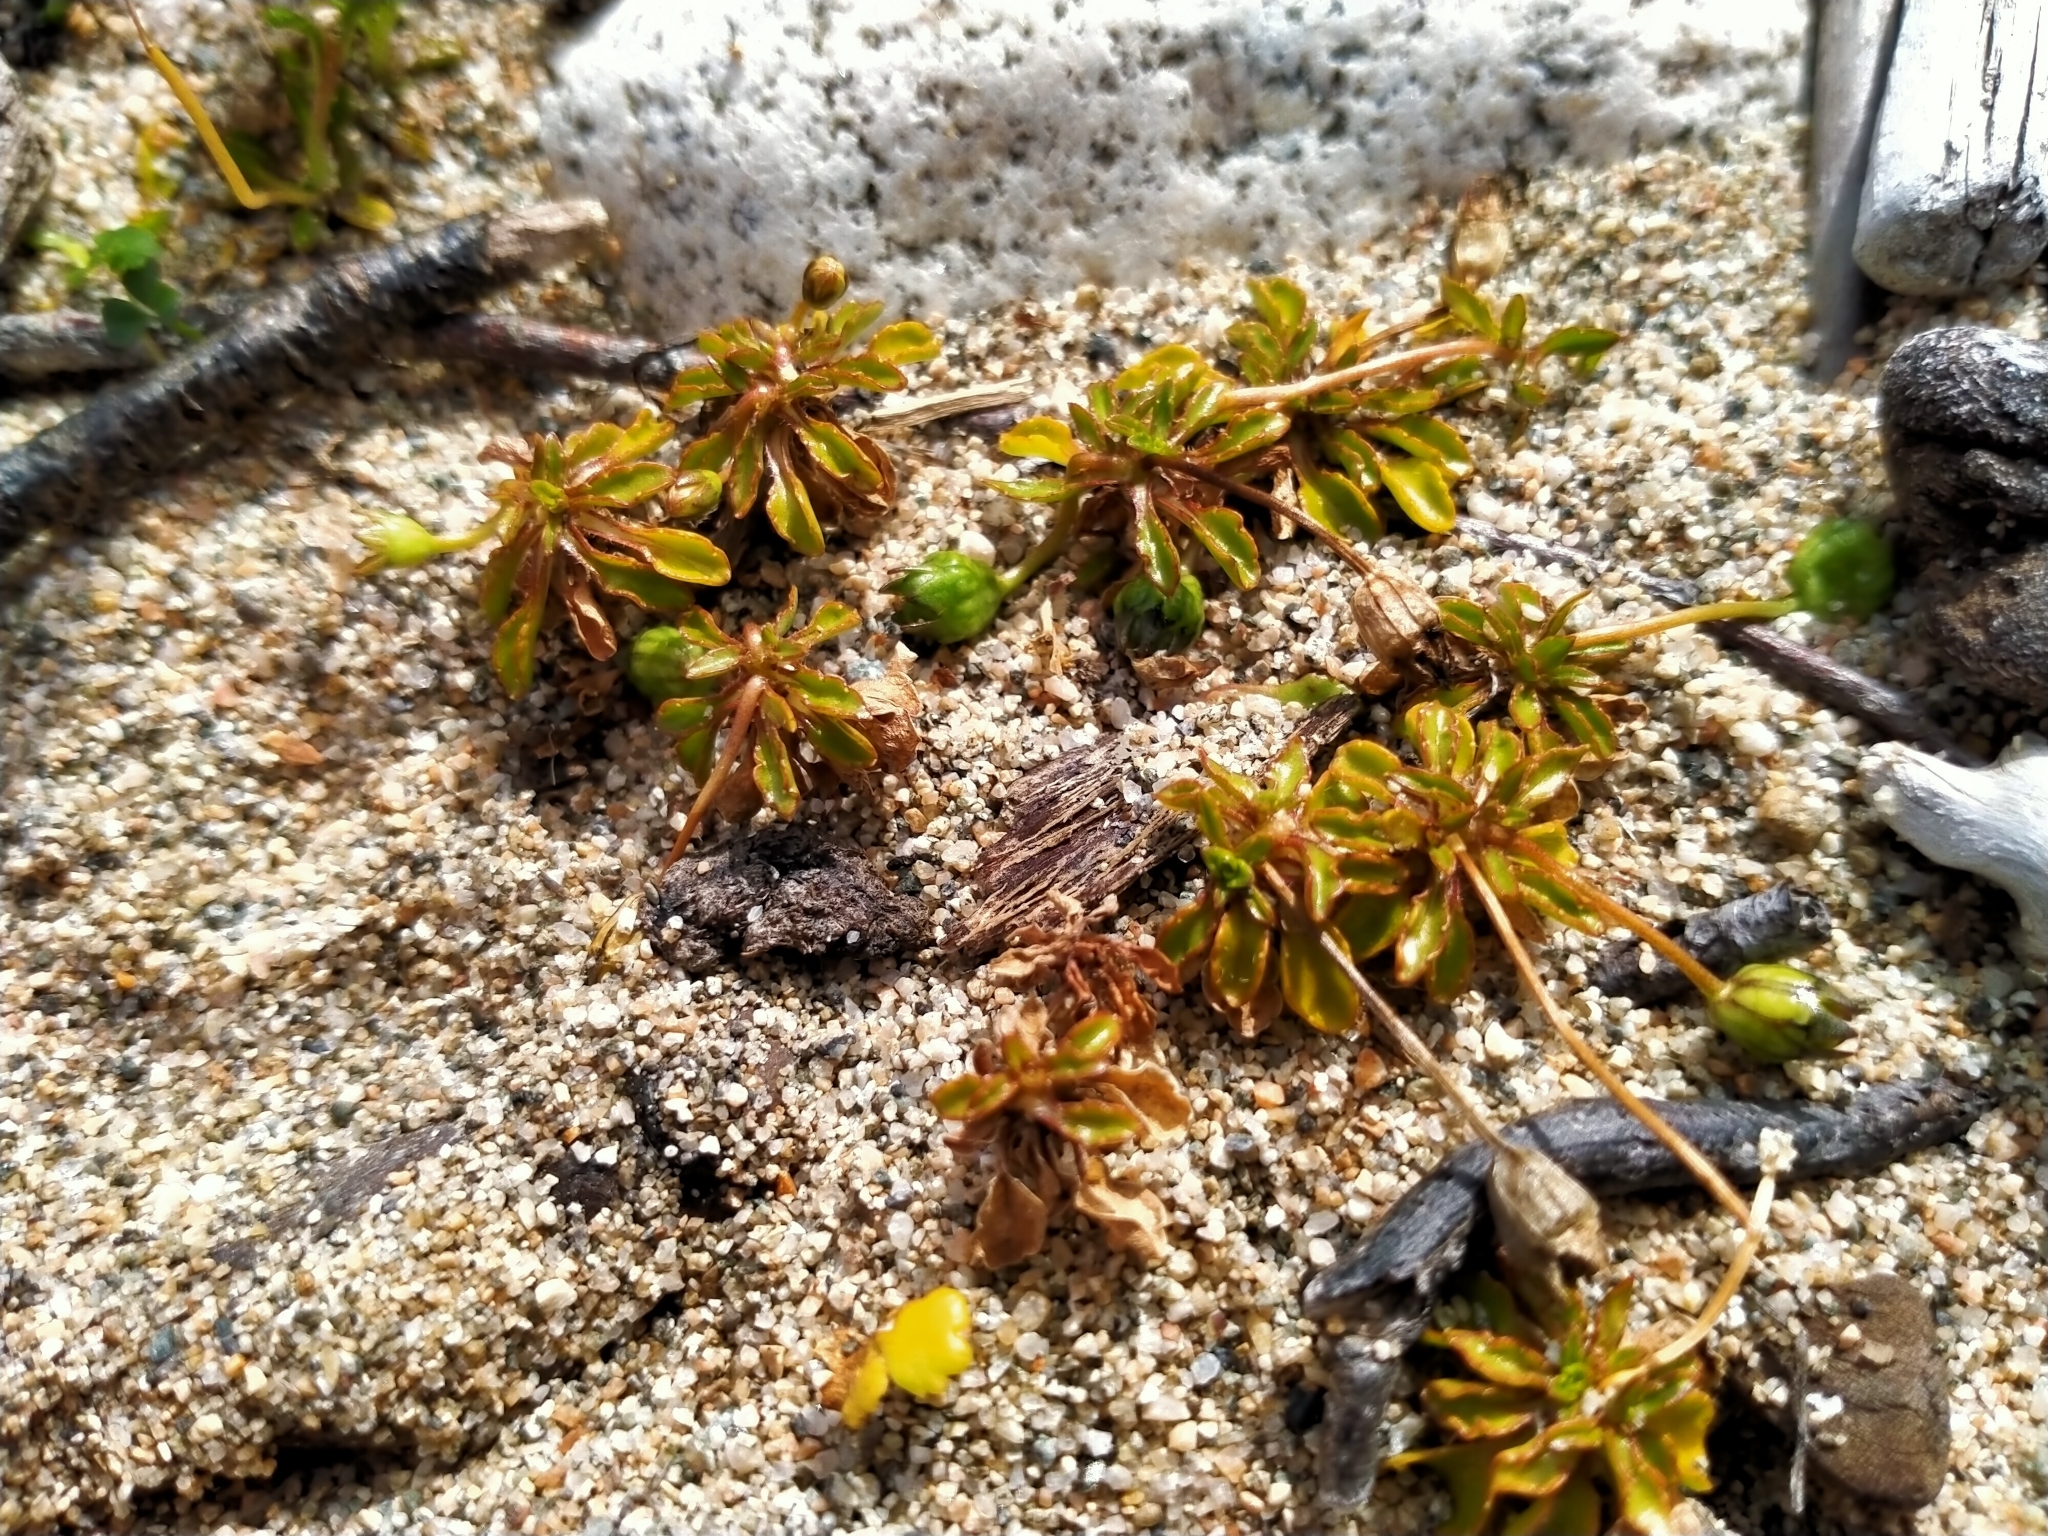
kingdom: Plantae
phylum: Tracheophyta
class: Magnoliopsida
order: Asterales
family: Campanulaceae
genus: Wahlenbergia
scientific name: Wahlenbergia congesta
